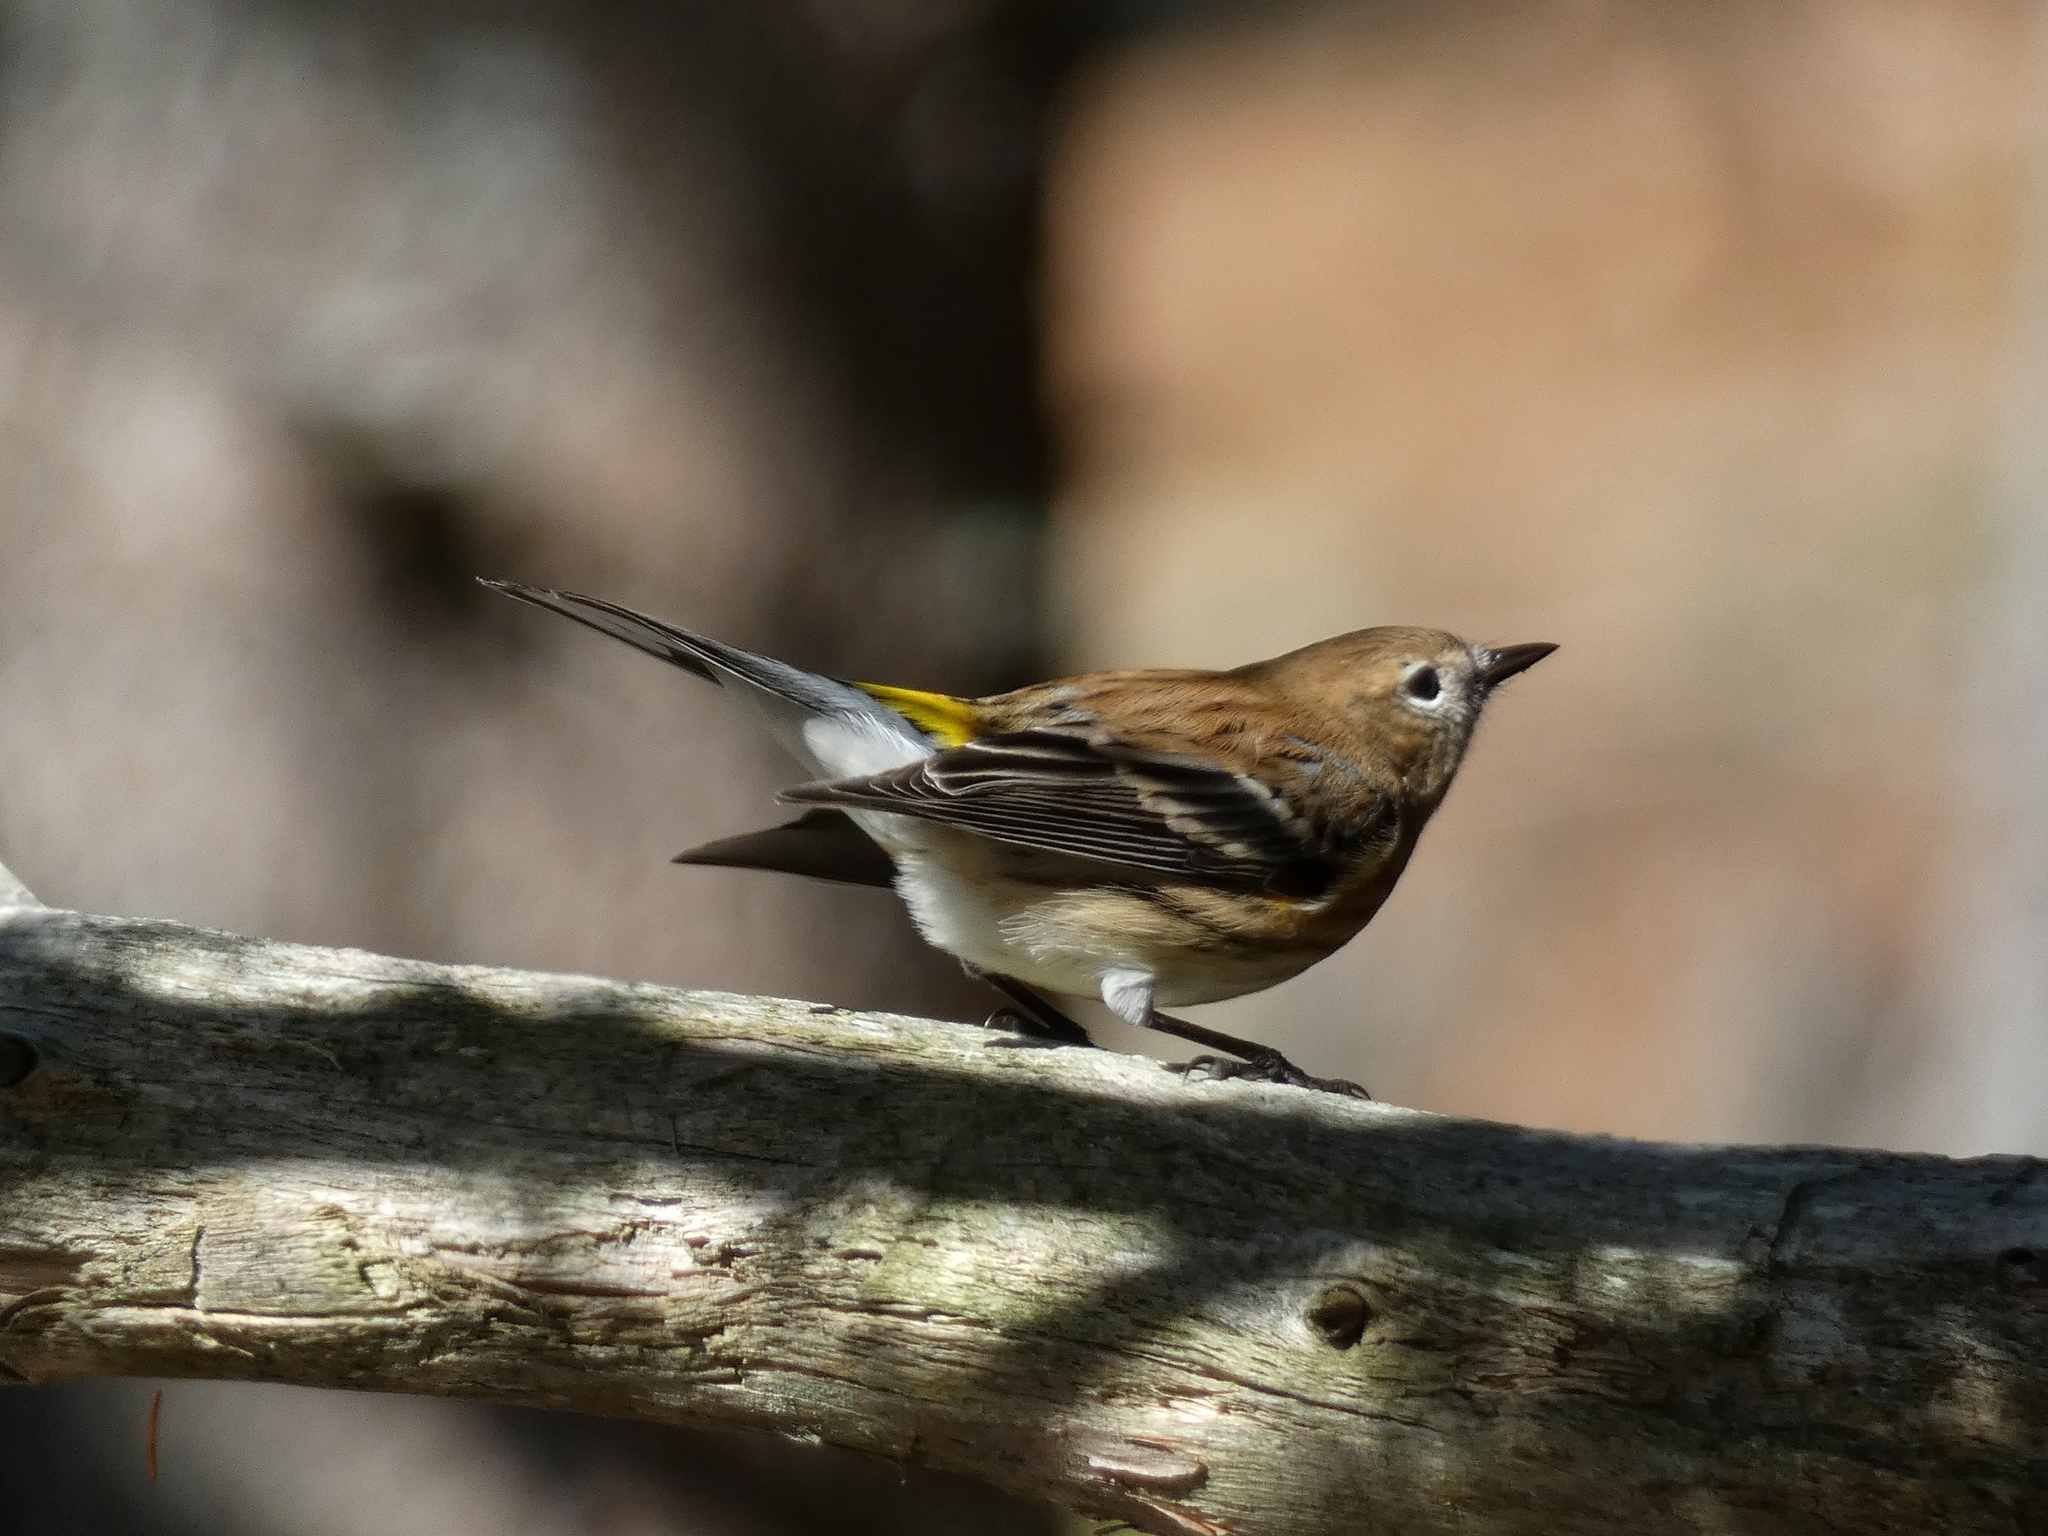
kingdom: Animalia
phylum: Chordata
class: Aves
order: Passeriformes
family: Parulidae
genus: Setophaga
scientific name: Setophaga coronata
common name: Myrtle warbler
